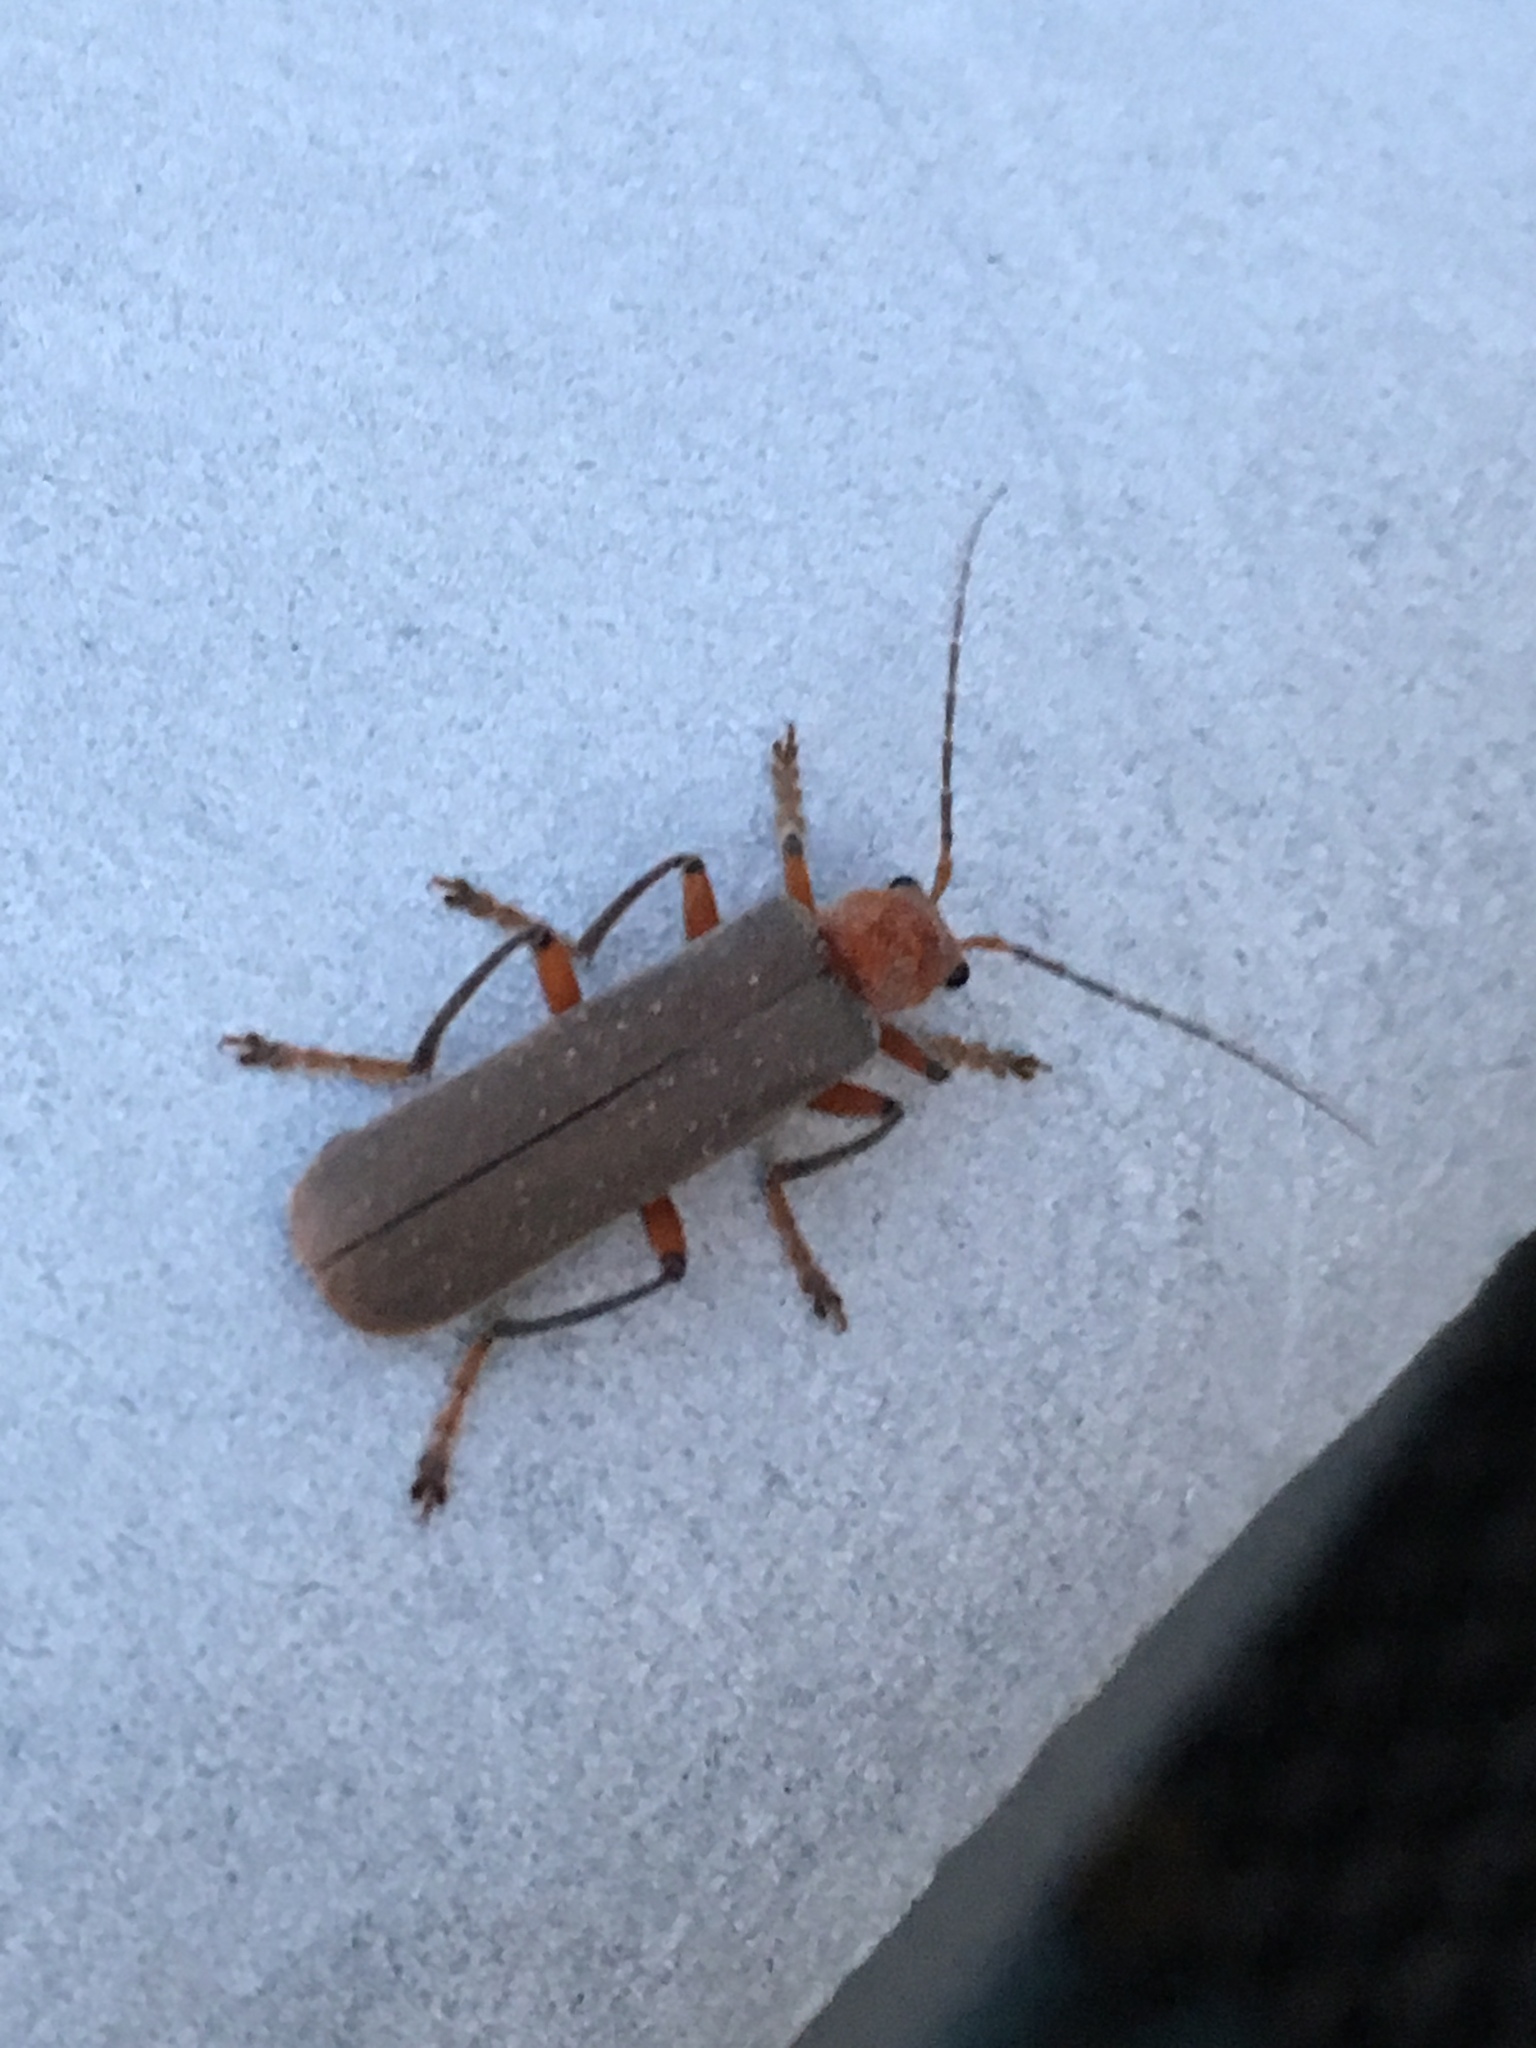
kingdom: Animalia
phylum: Arthropoda
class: Insecta
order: Coleoptera
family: Cantharidae
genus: Pacificanthia
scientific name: Pacificanthia consors
